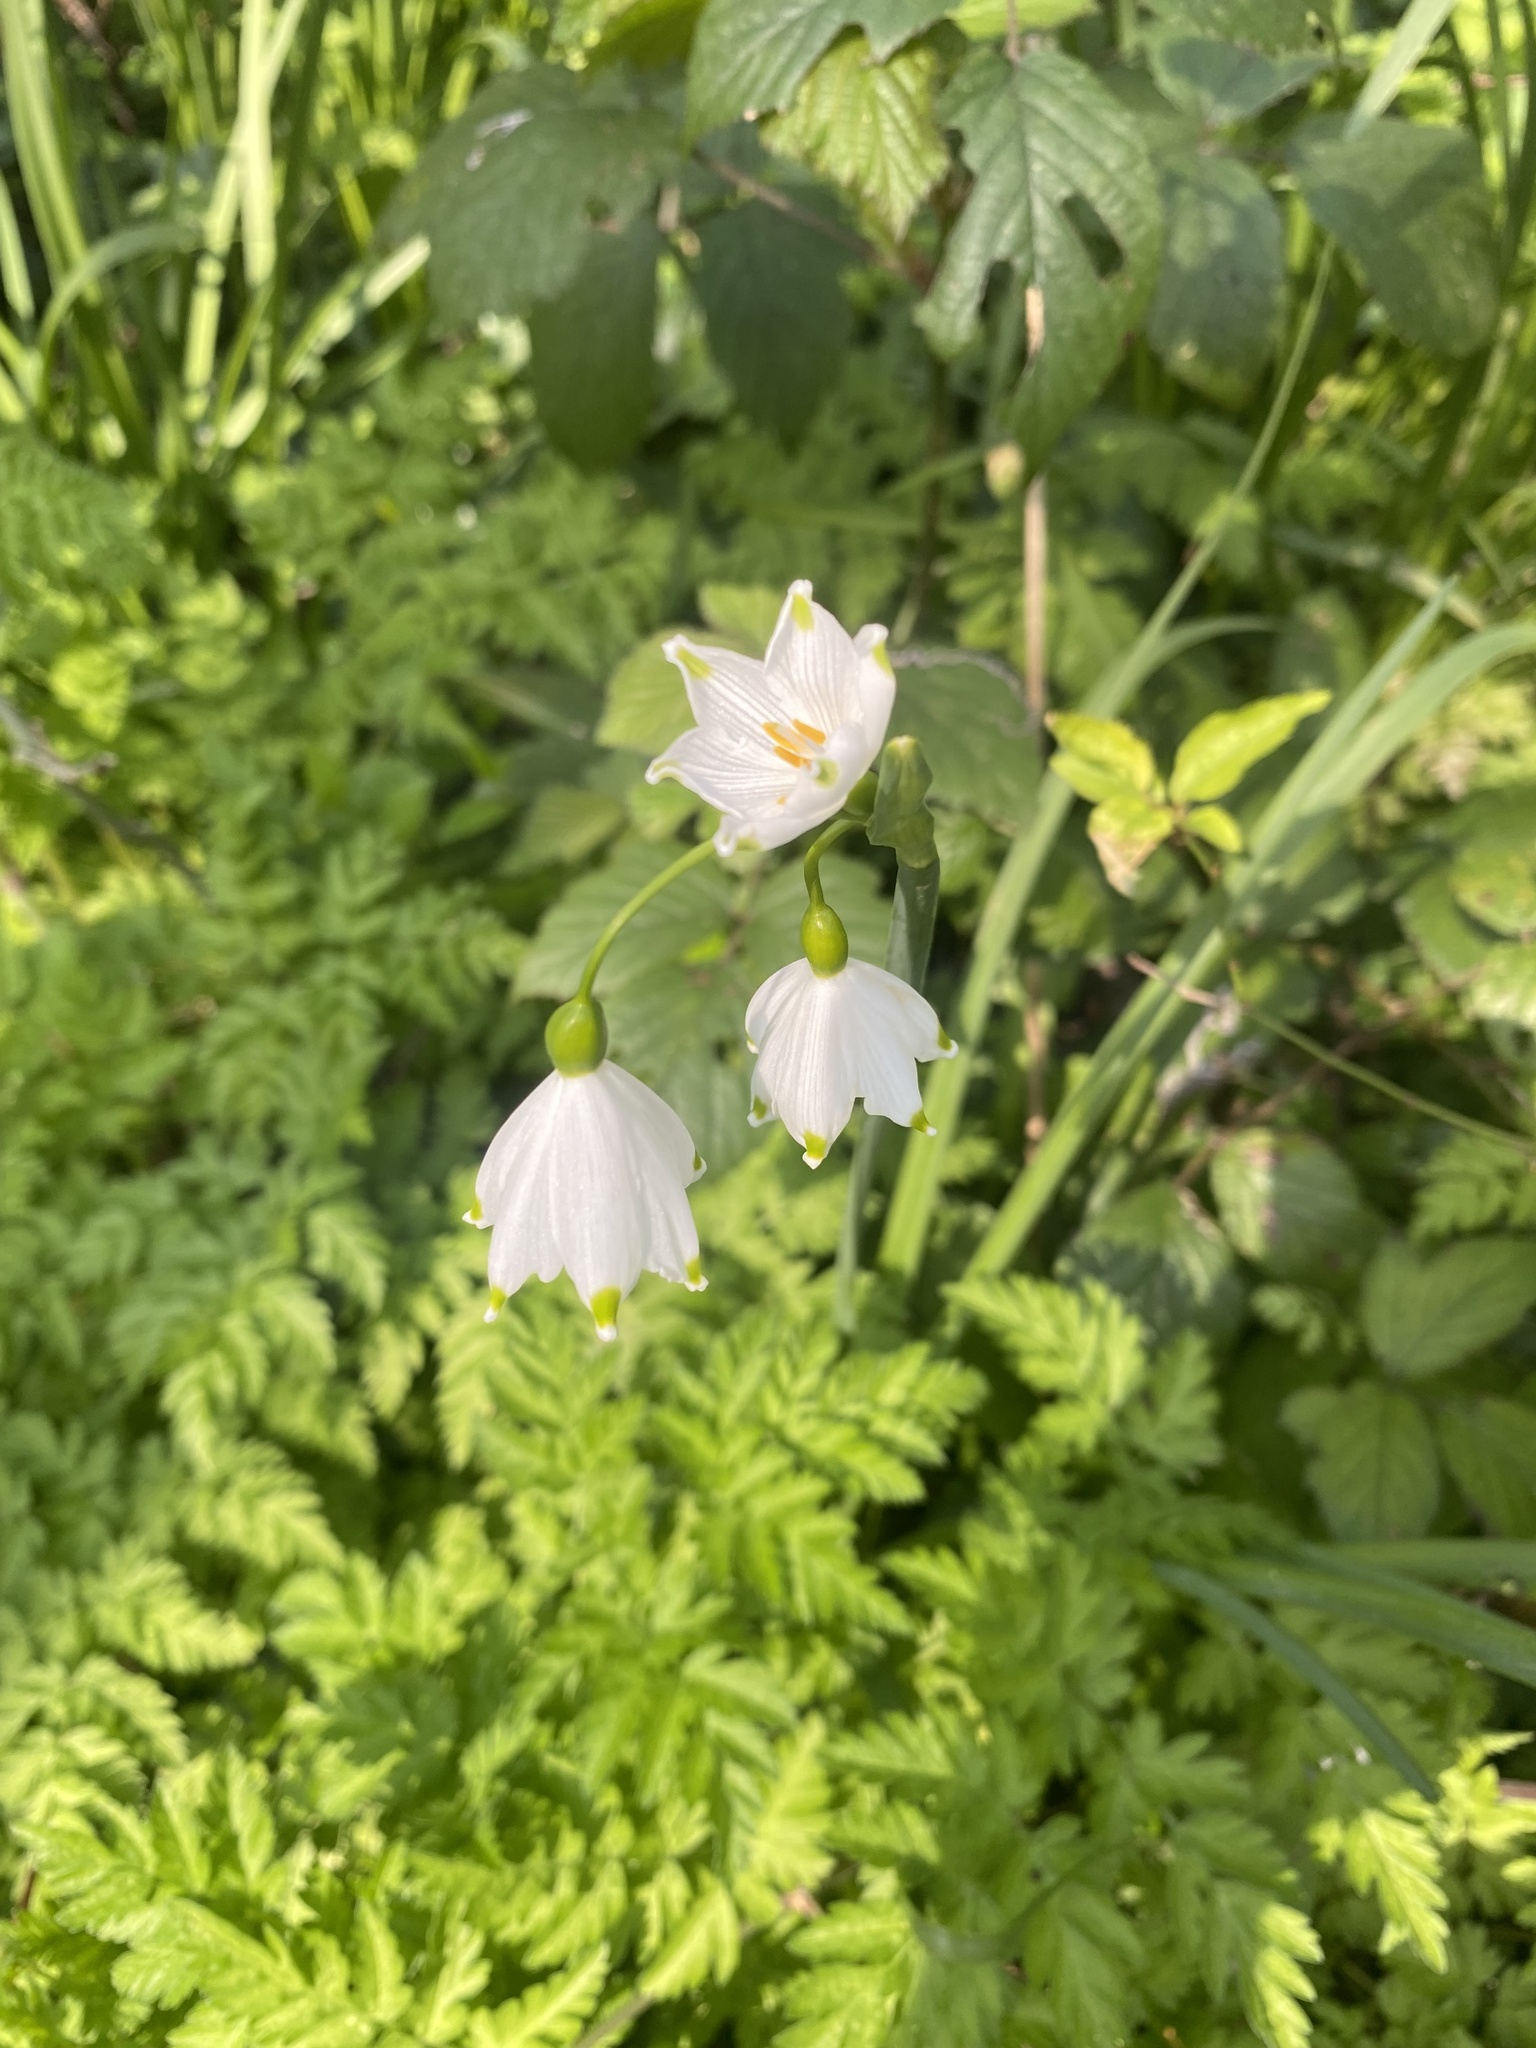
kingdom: Plantae
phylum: Tracheophyta
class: Liliopsida
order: Asparagales
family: Amaryllidaceae
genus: Leucojum
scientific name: Leucojum aestivum
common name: Summer snowflake
